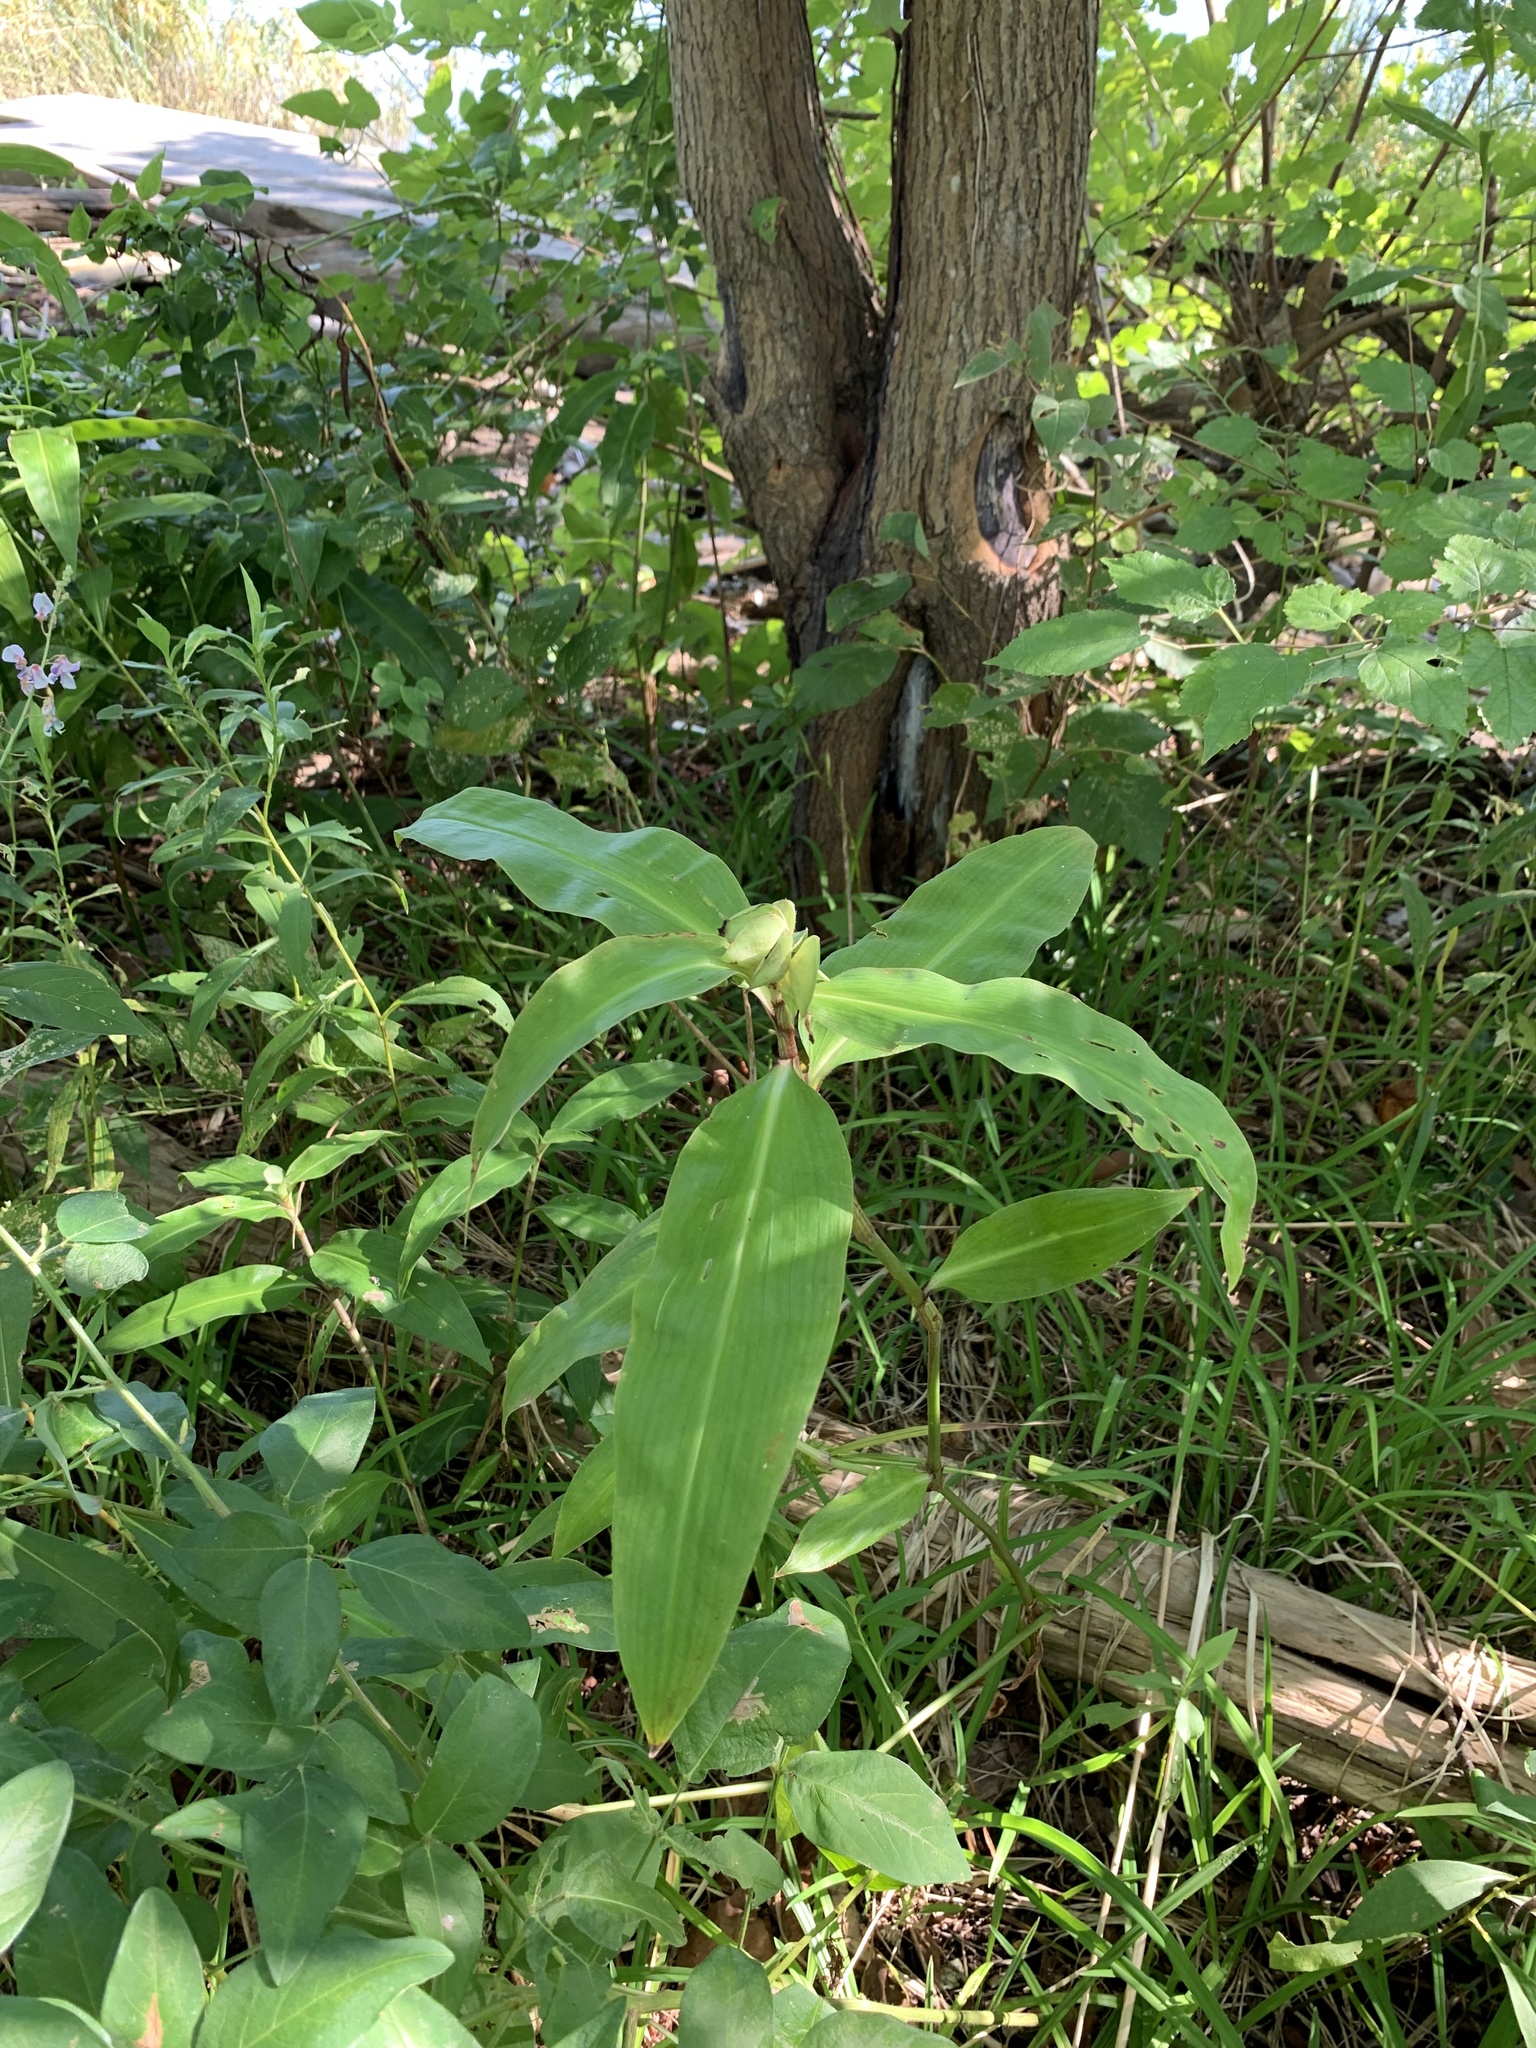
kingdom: Plantae
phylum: Tracheophyta
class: Liliopsida
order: Commelinales
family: Commelinaceae
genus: Commelina
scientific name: Commelina virginica
